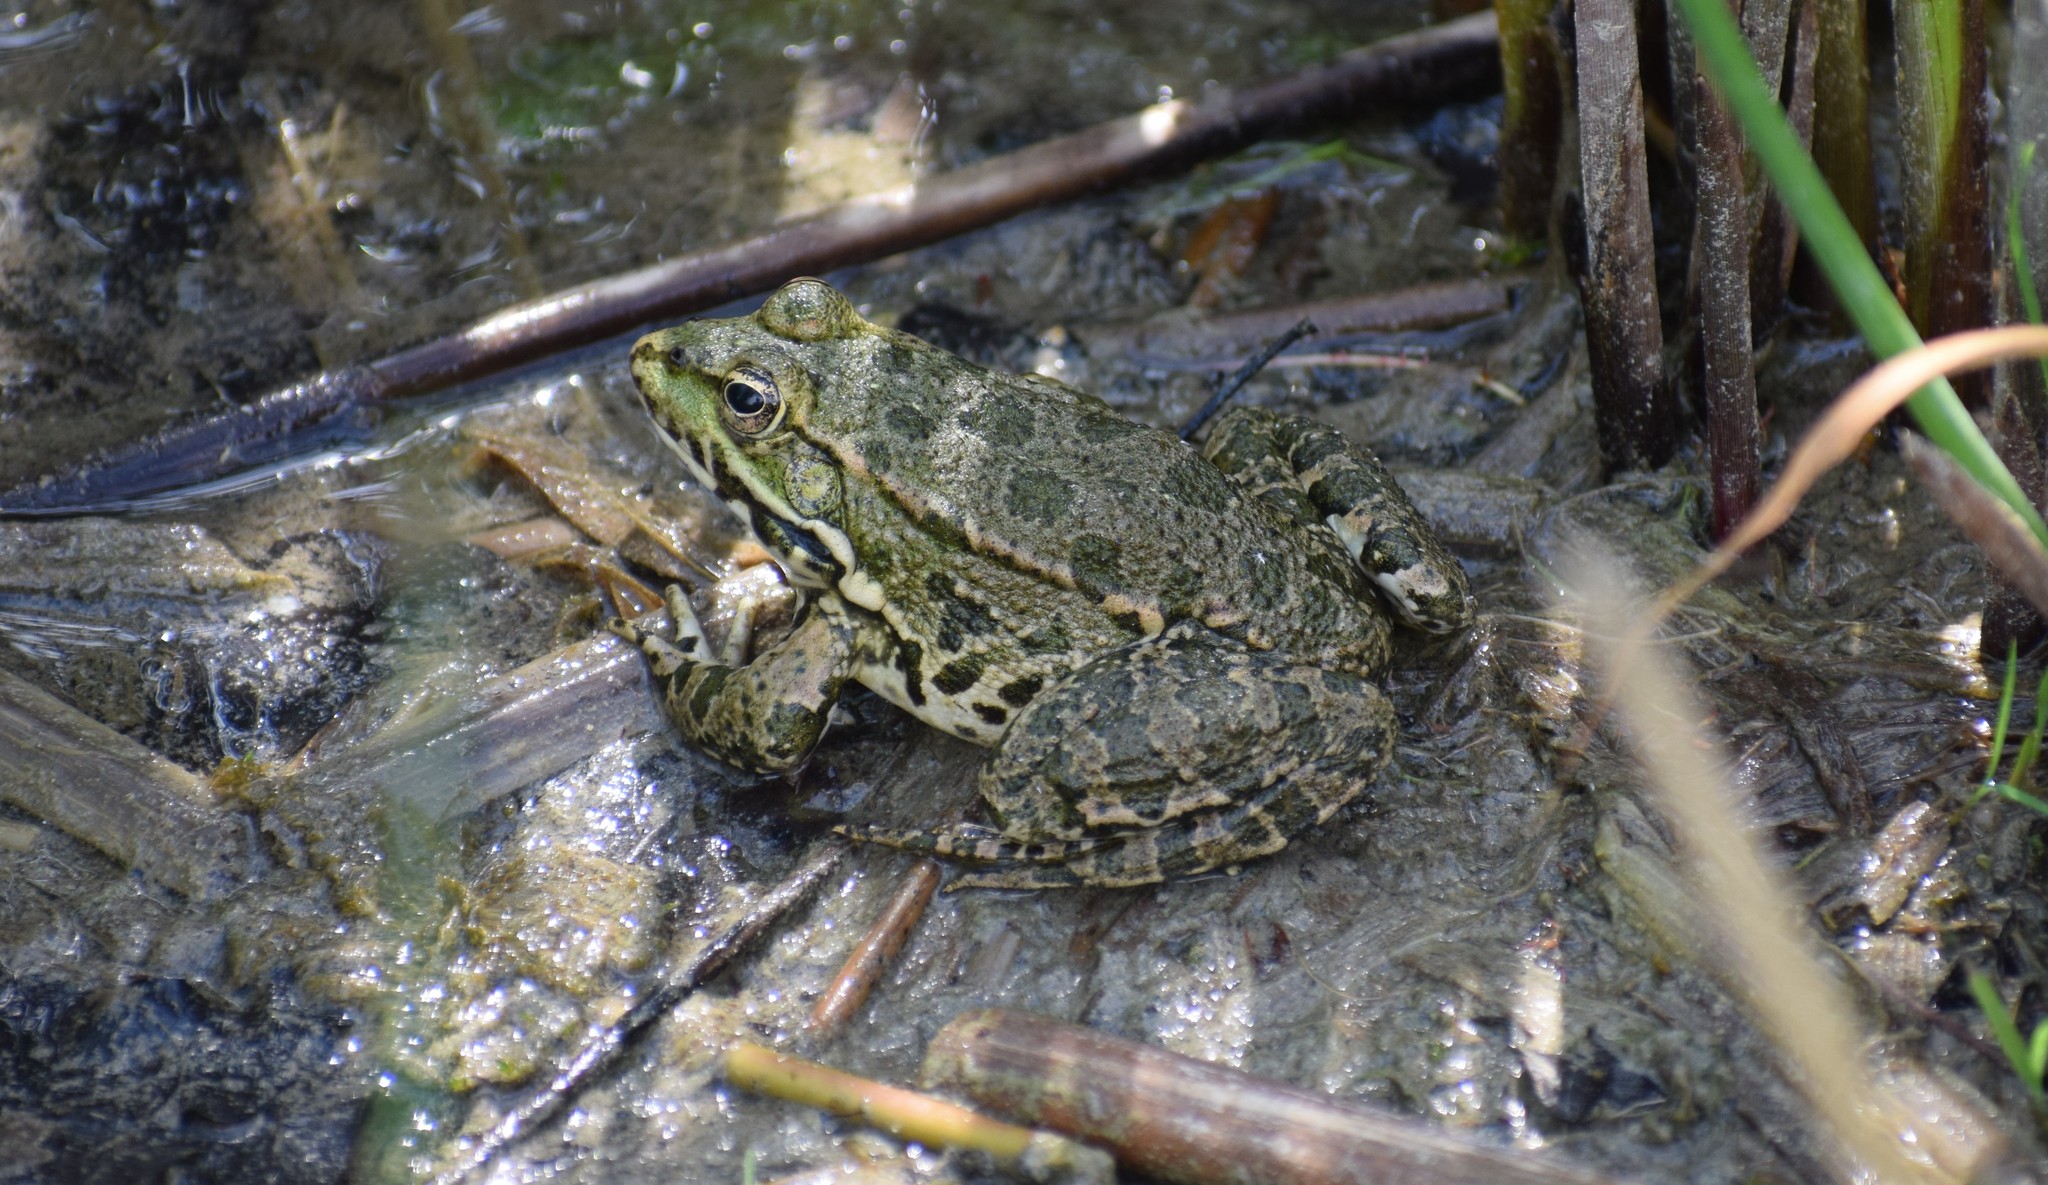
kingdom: Animalia
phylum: Chordata
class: Amphibia
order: Anura
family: Ranidae
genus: Pelophylax
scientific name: Pelophylax
